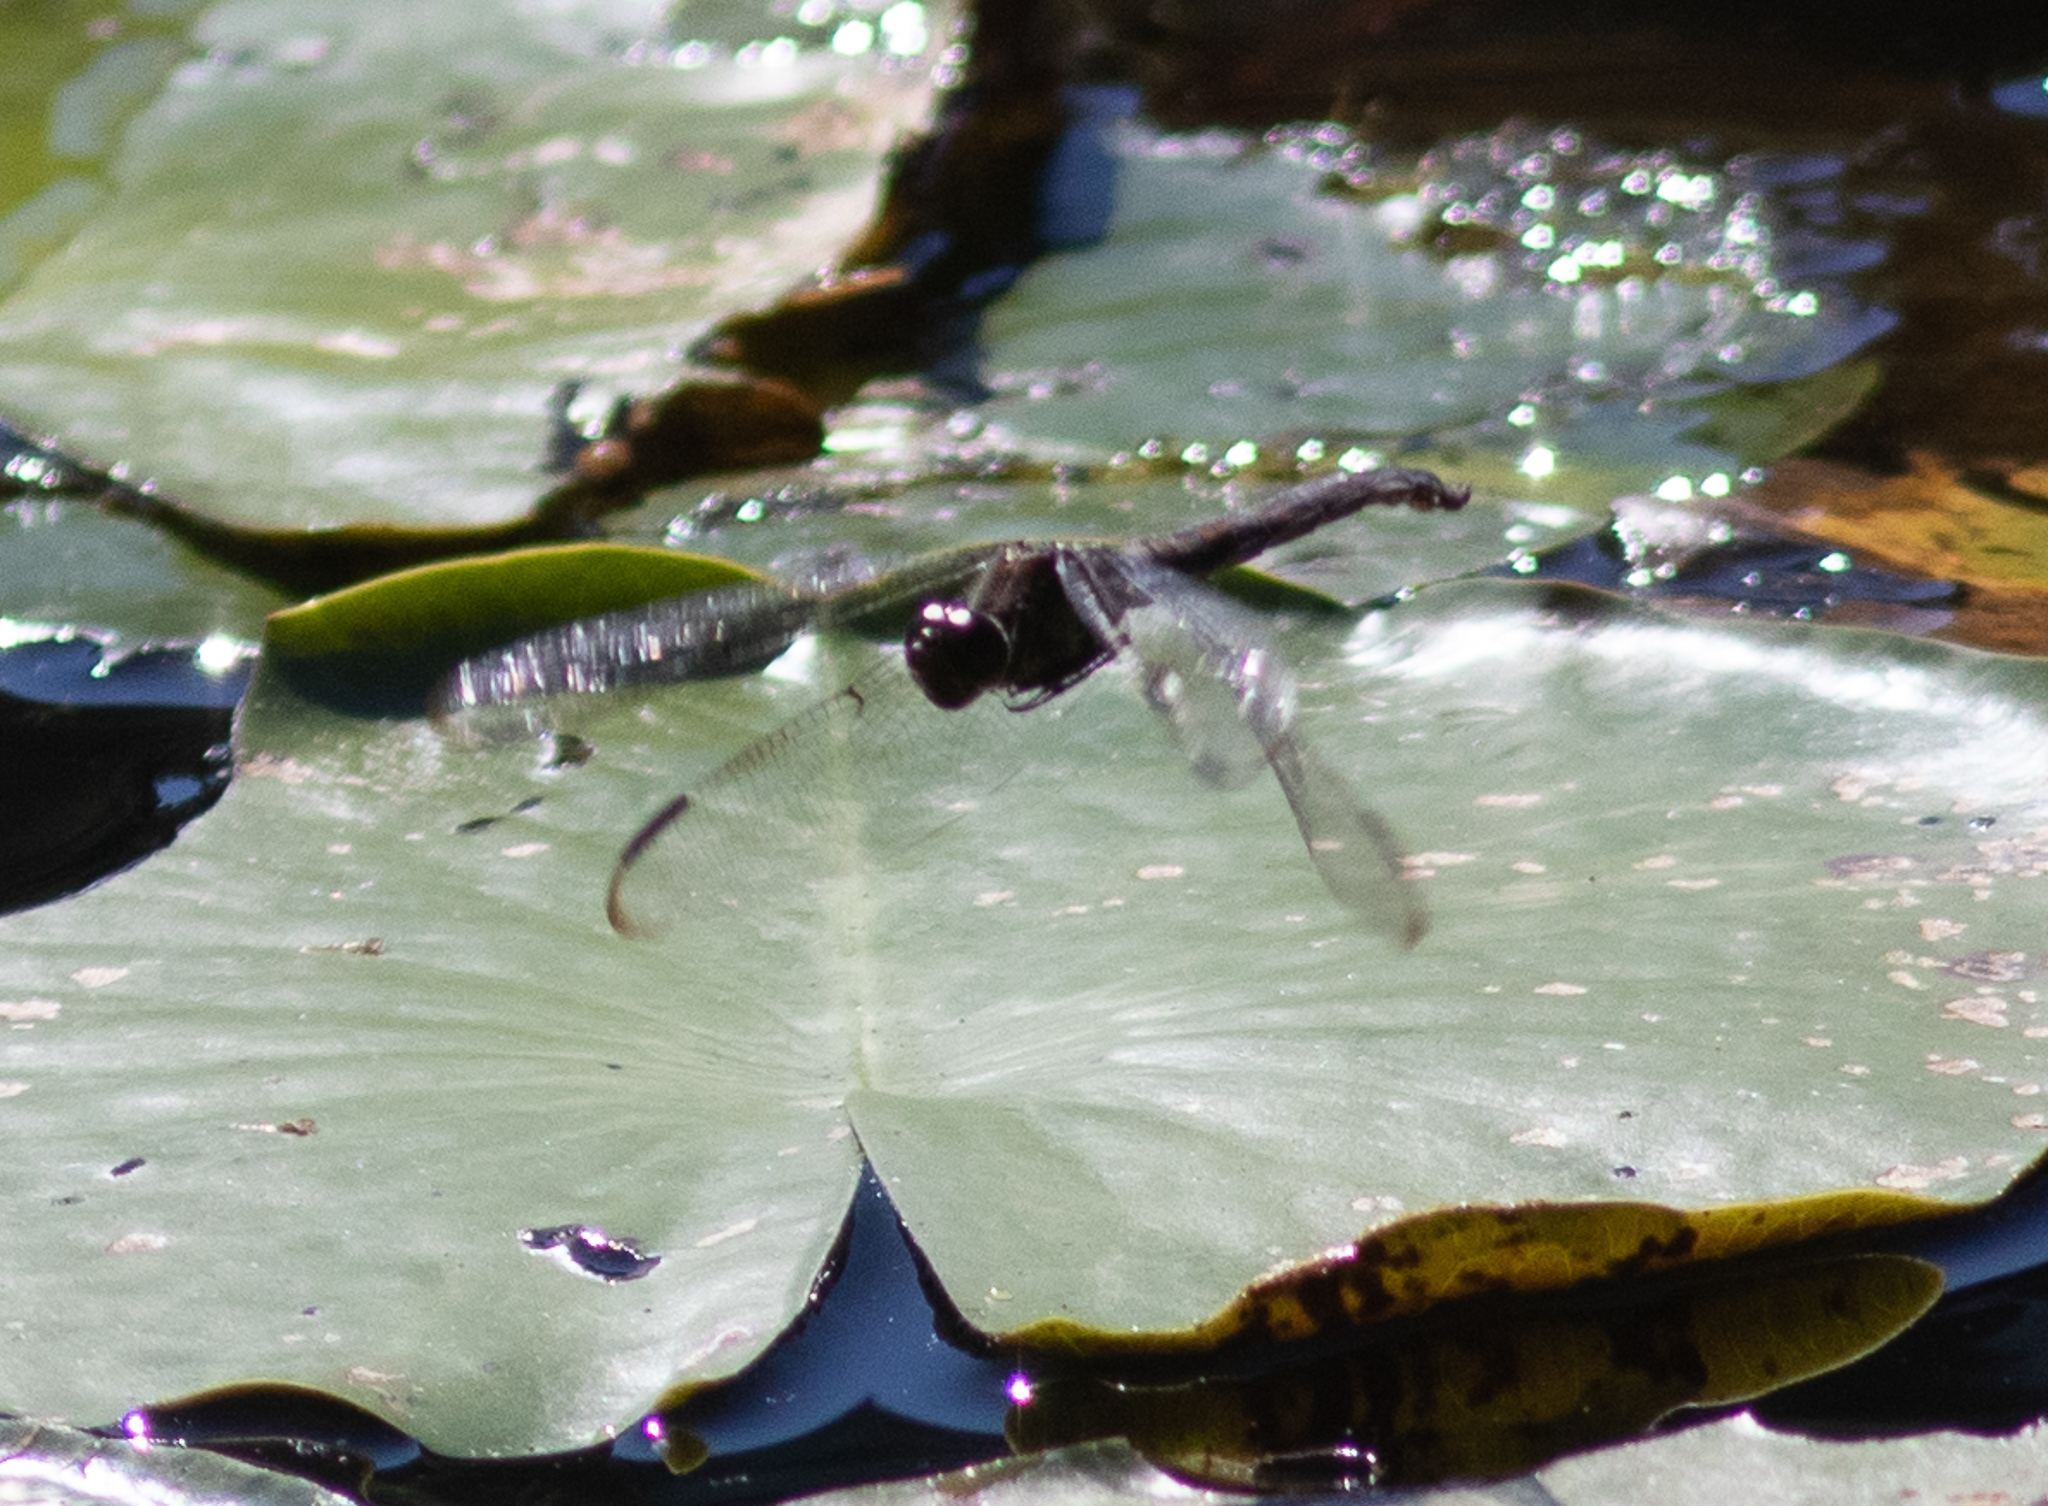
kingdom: Animalia
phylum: Arthropoda
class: Insecta
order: Odonata
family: Libellulidae
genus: Libellula
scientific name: Libellula incesta
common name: Slaty skimmer
